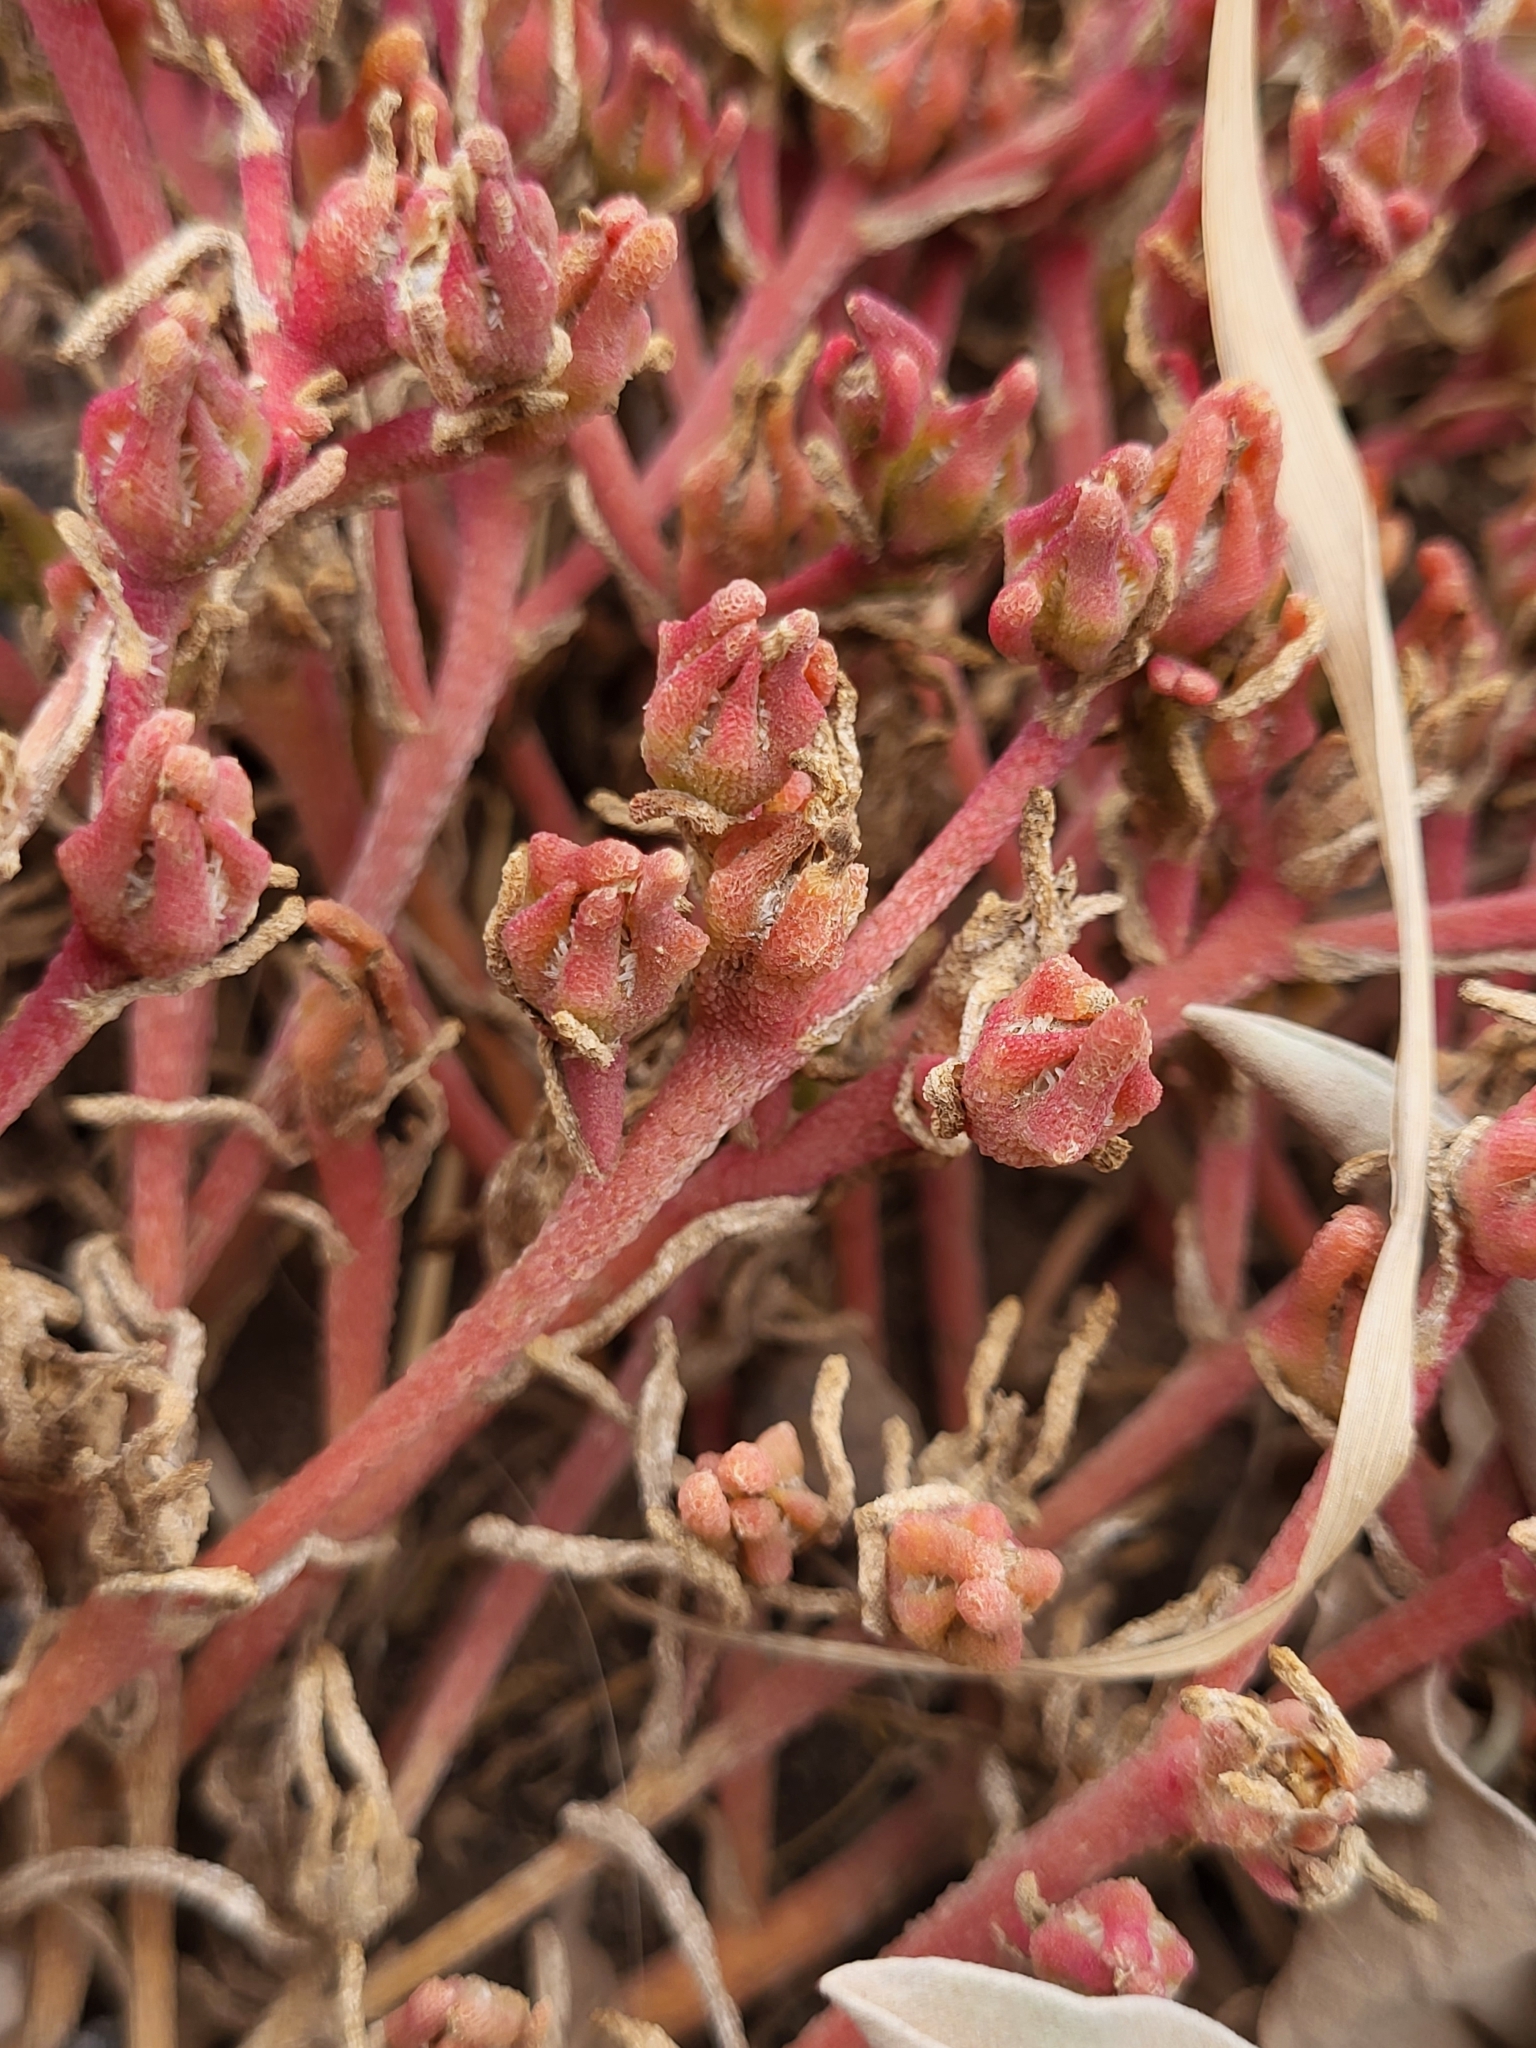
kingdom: Plantae
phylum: Tracheophyta
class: Magnoliopsida
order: Caryophyllales
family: Aizoaceae
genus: Mesembryanthemum
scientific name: Mesembryanthemum nodiflorum
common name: Slenderleaf iceplant
